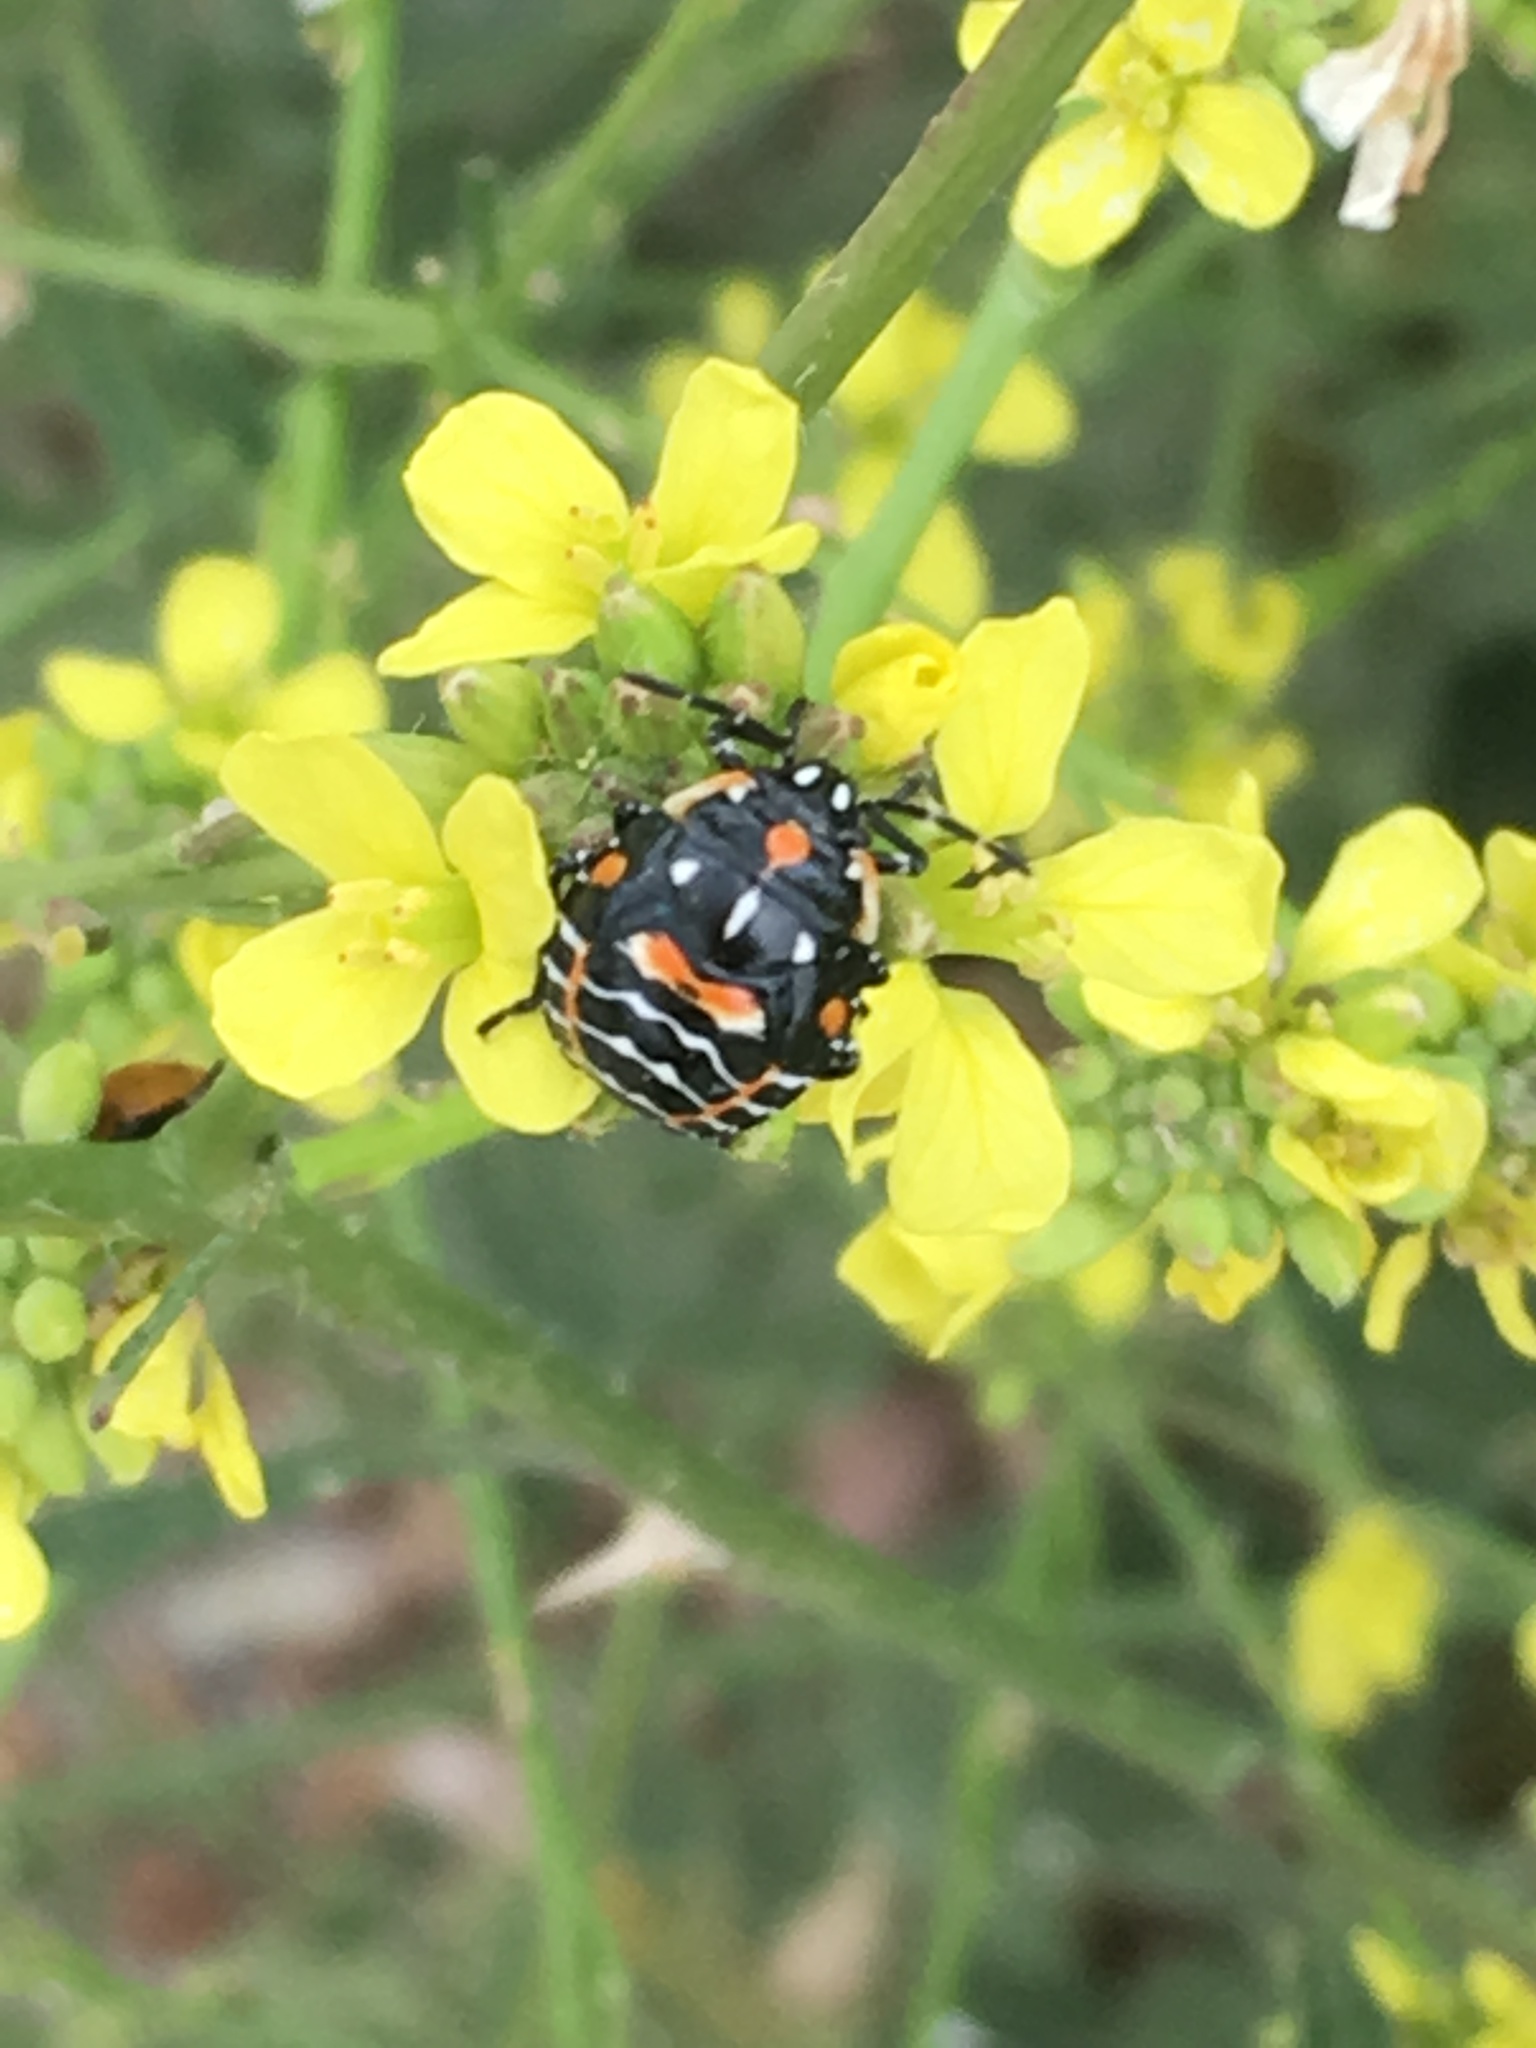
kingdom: Animalia
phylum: Arthropoda
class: Insecta
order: Hemiptera
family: Pentatomidae
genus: Murgantia
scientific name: Murgantia histrionica
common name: Harlequin bug
